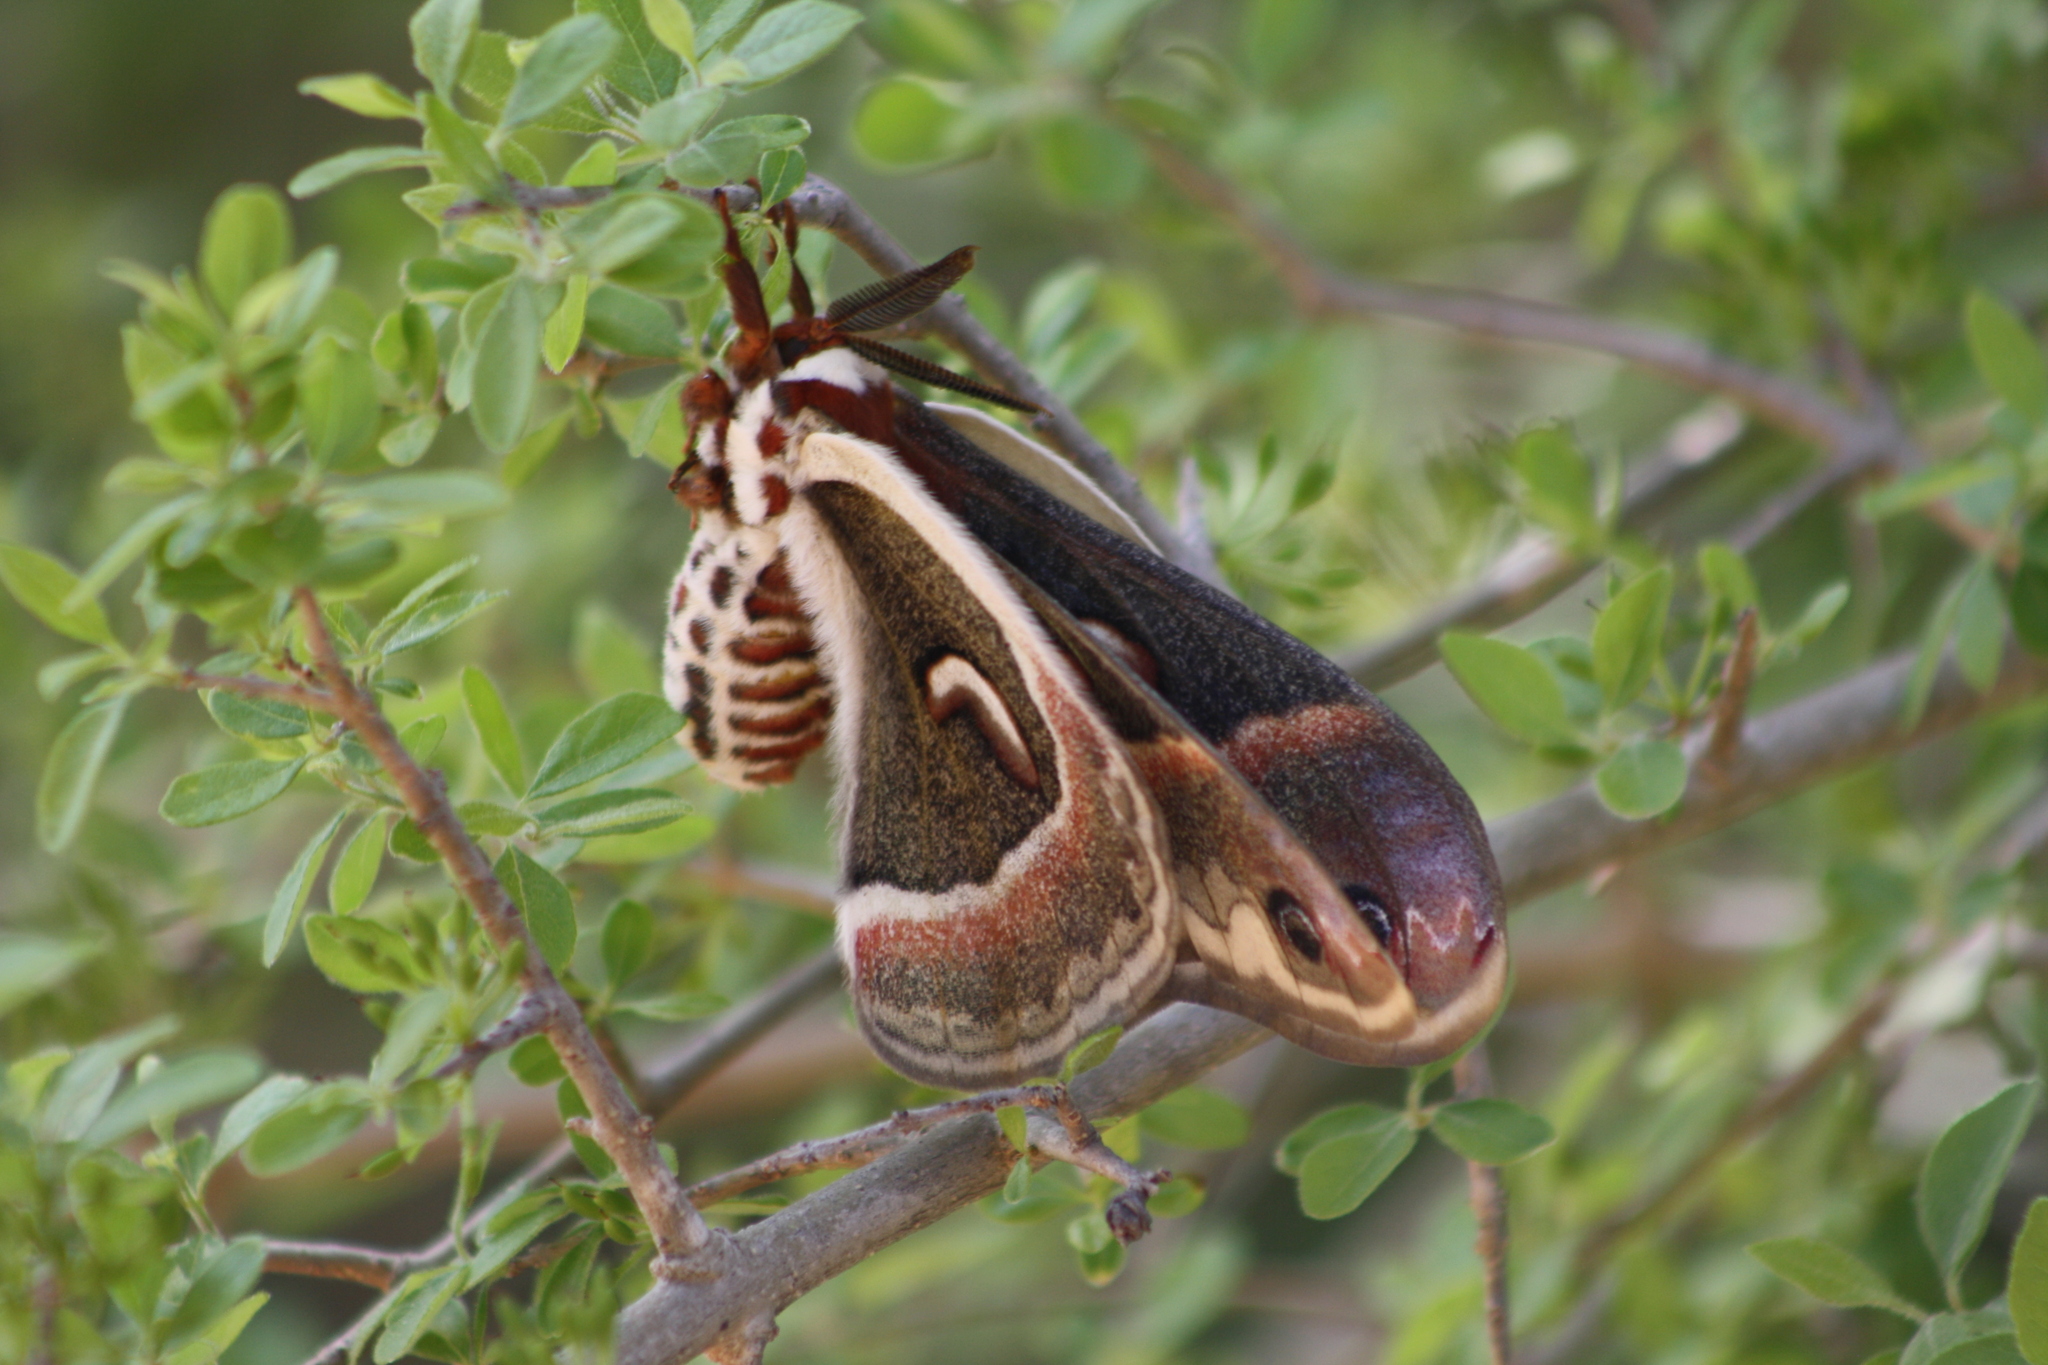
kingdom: Animalia
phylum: Arthropoda
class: Insecta
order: Lepidoptera
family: Saturniidae
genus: Hyalophora
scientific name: Hyalophora cecropia
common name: Cecropia silkmoth
